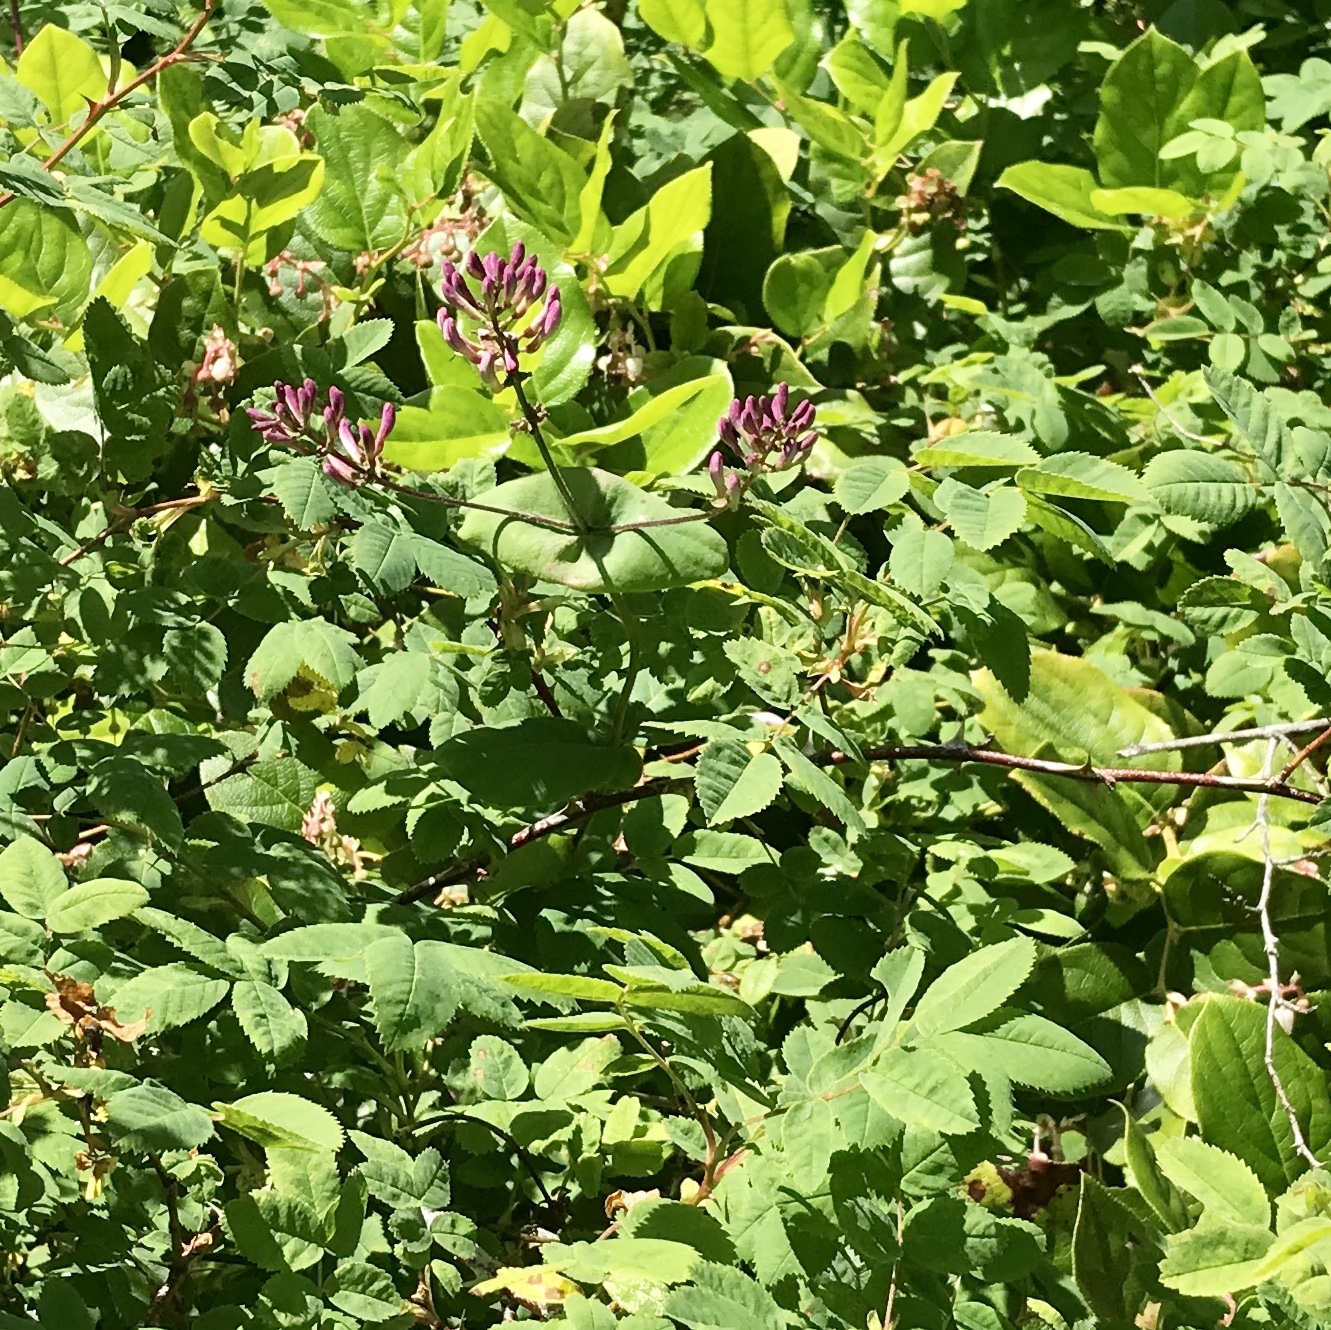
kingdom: Plantae
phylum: Tracheophyta
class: Magnoliopsida
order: Dipsacales
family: Caprifoliaceae
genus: Lonicera
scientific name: Lonicera hispidula
